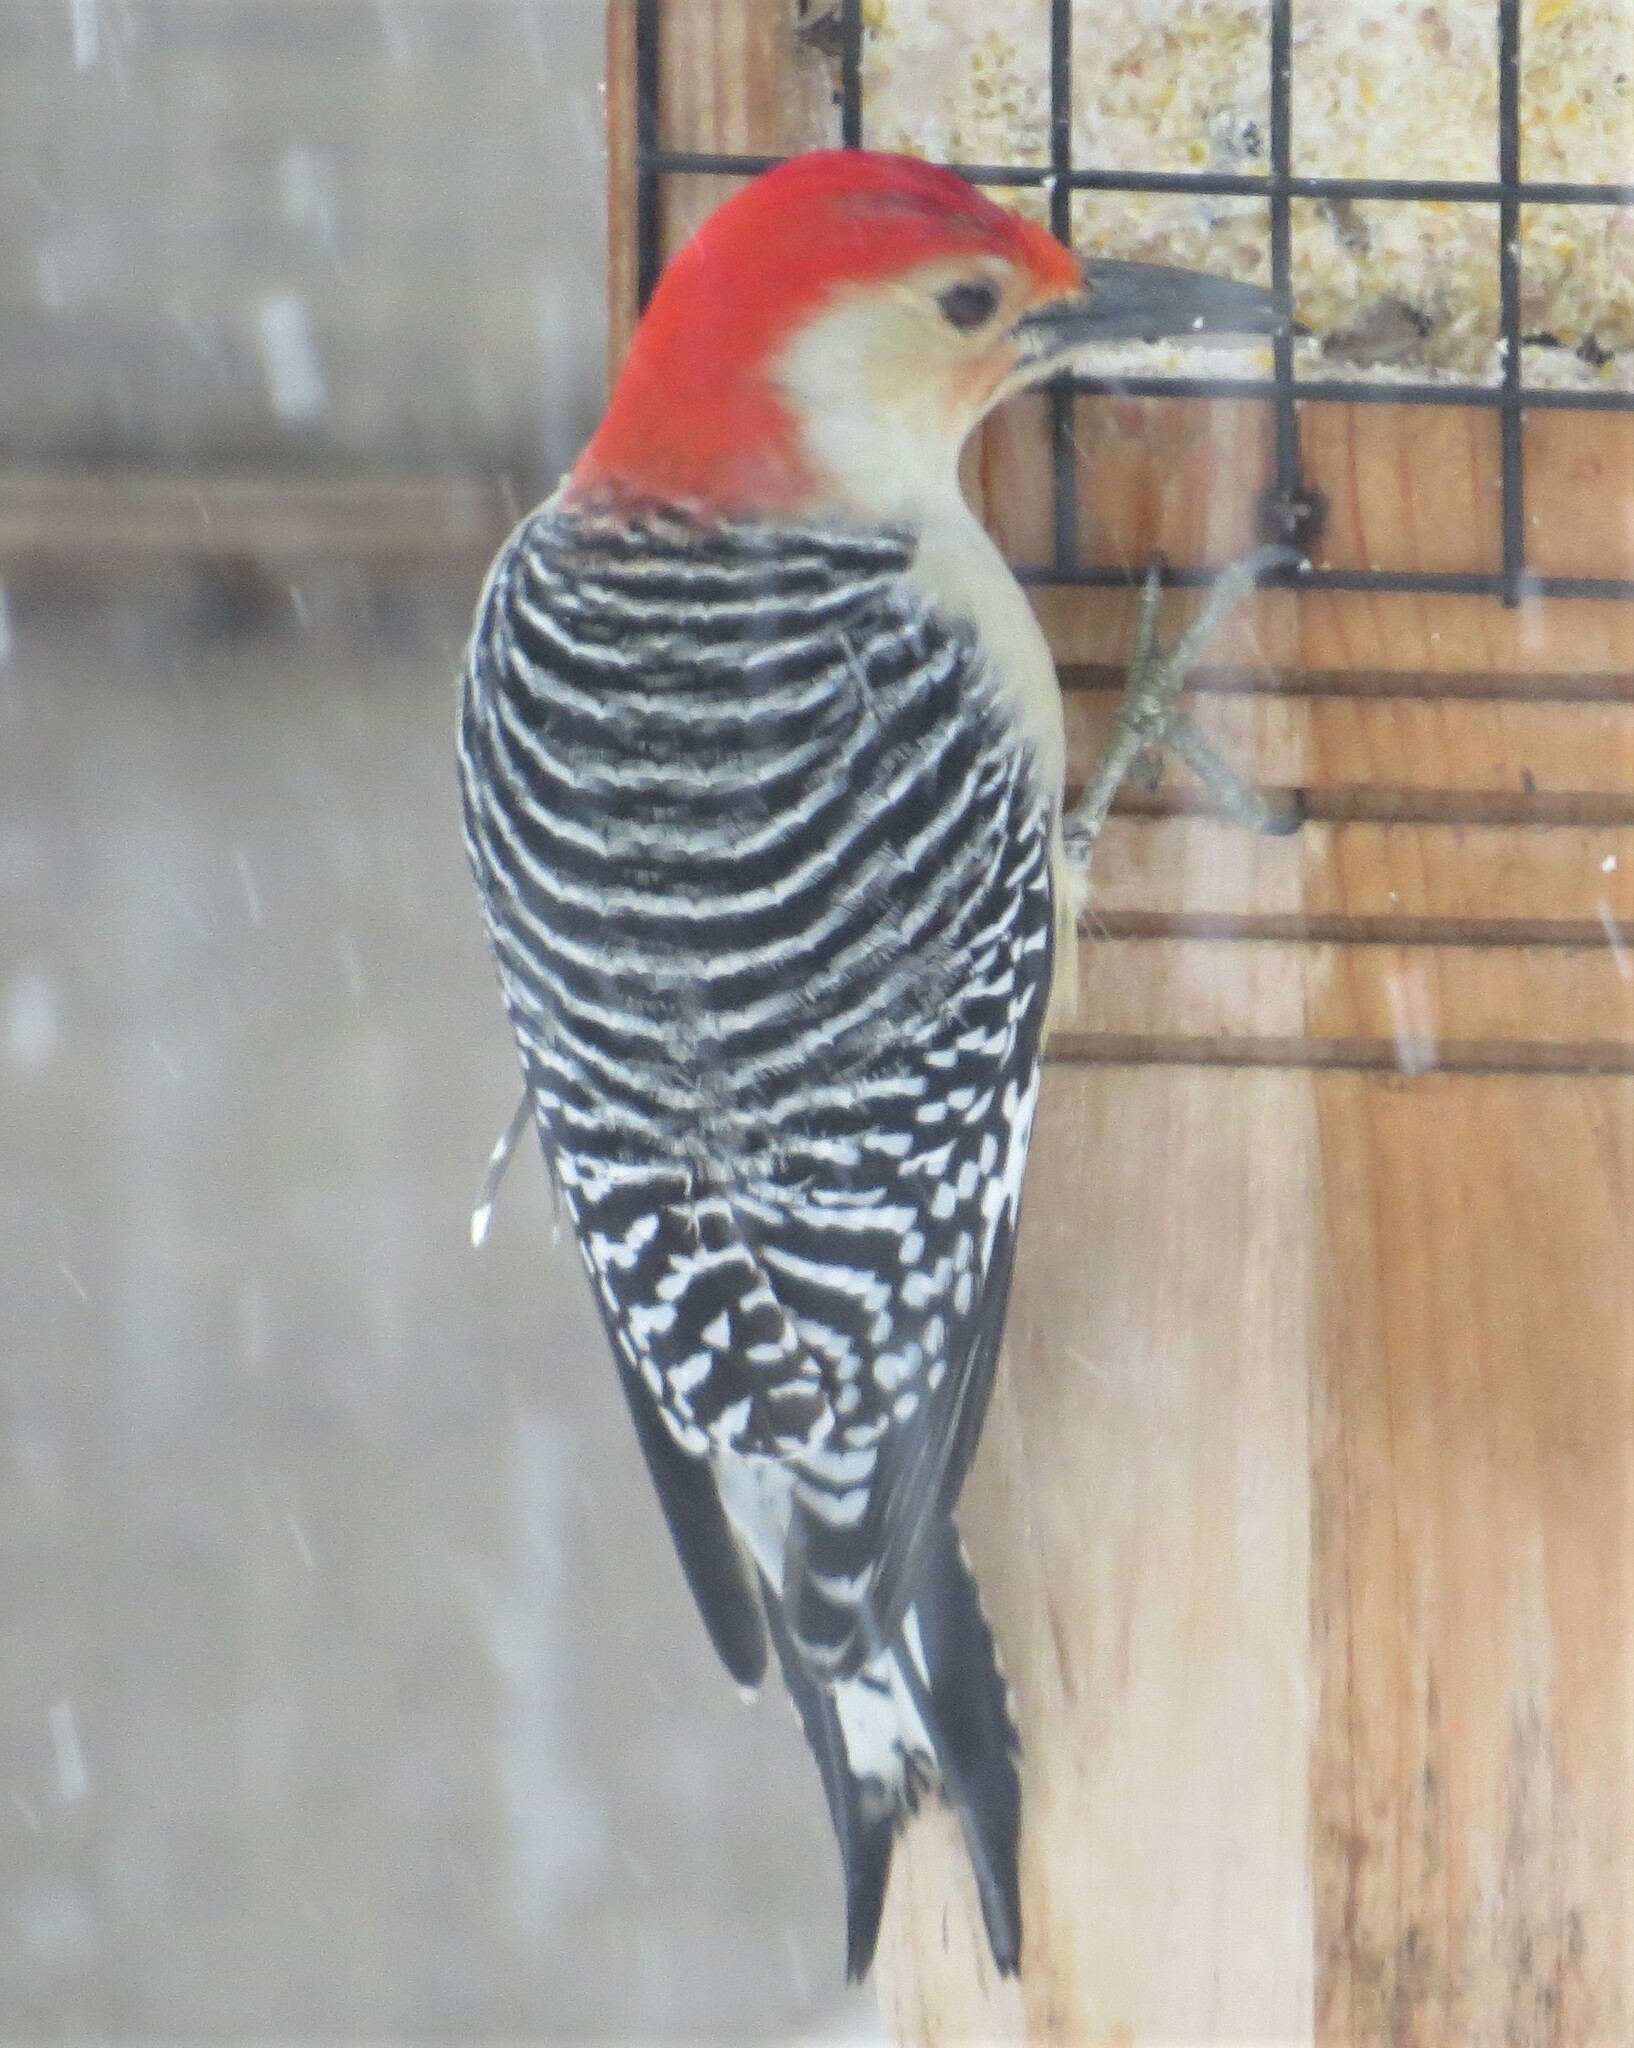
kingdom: Animalia
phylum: Chordata
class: Aves
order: Piciformes
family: Picidae
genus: Melanerpes
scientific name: Melanerpes carolinus
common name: Red-bellied woodpecker
